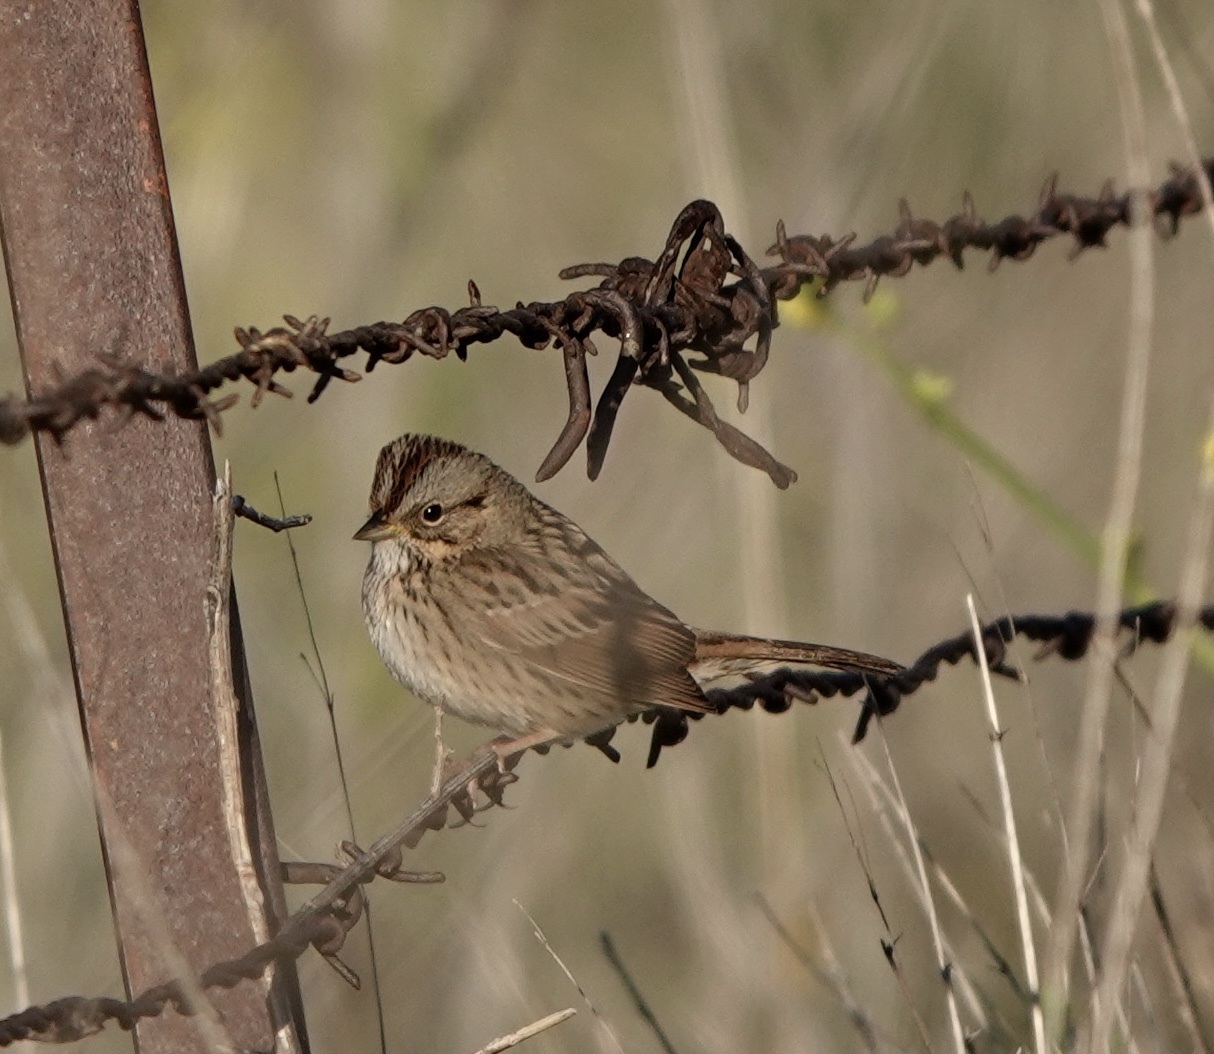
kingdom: Animalia
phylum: Chordata
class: Aves
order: Passeriformes
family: Passerellidae
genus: Melospiza
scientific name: Melospiza lincolnii
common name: Lincoln's sparrow
